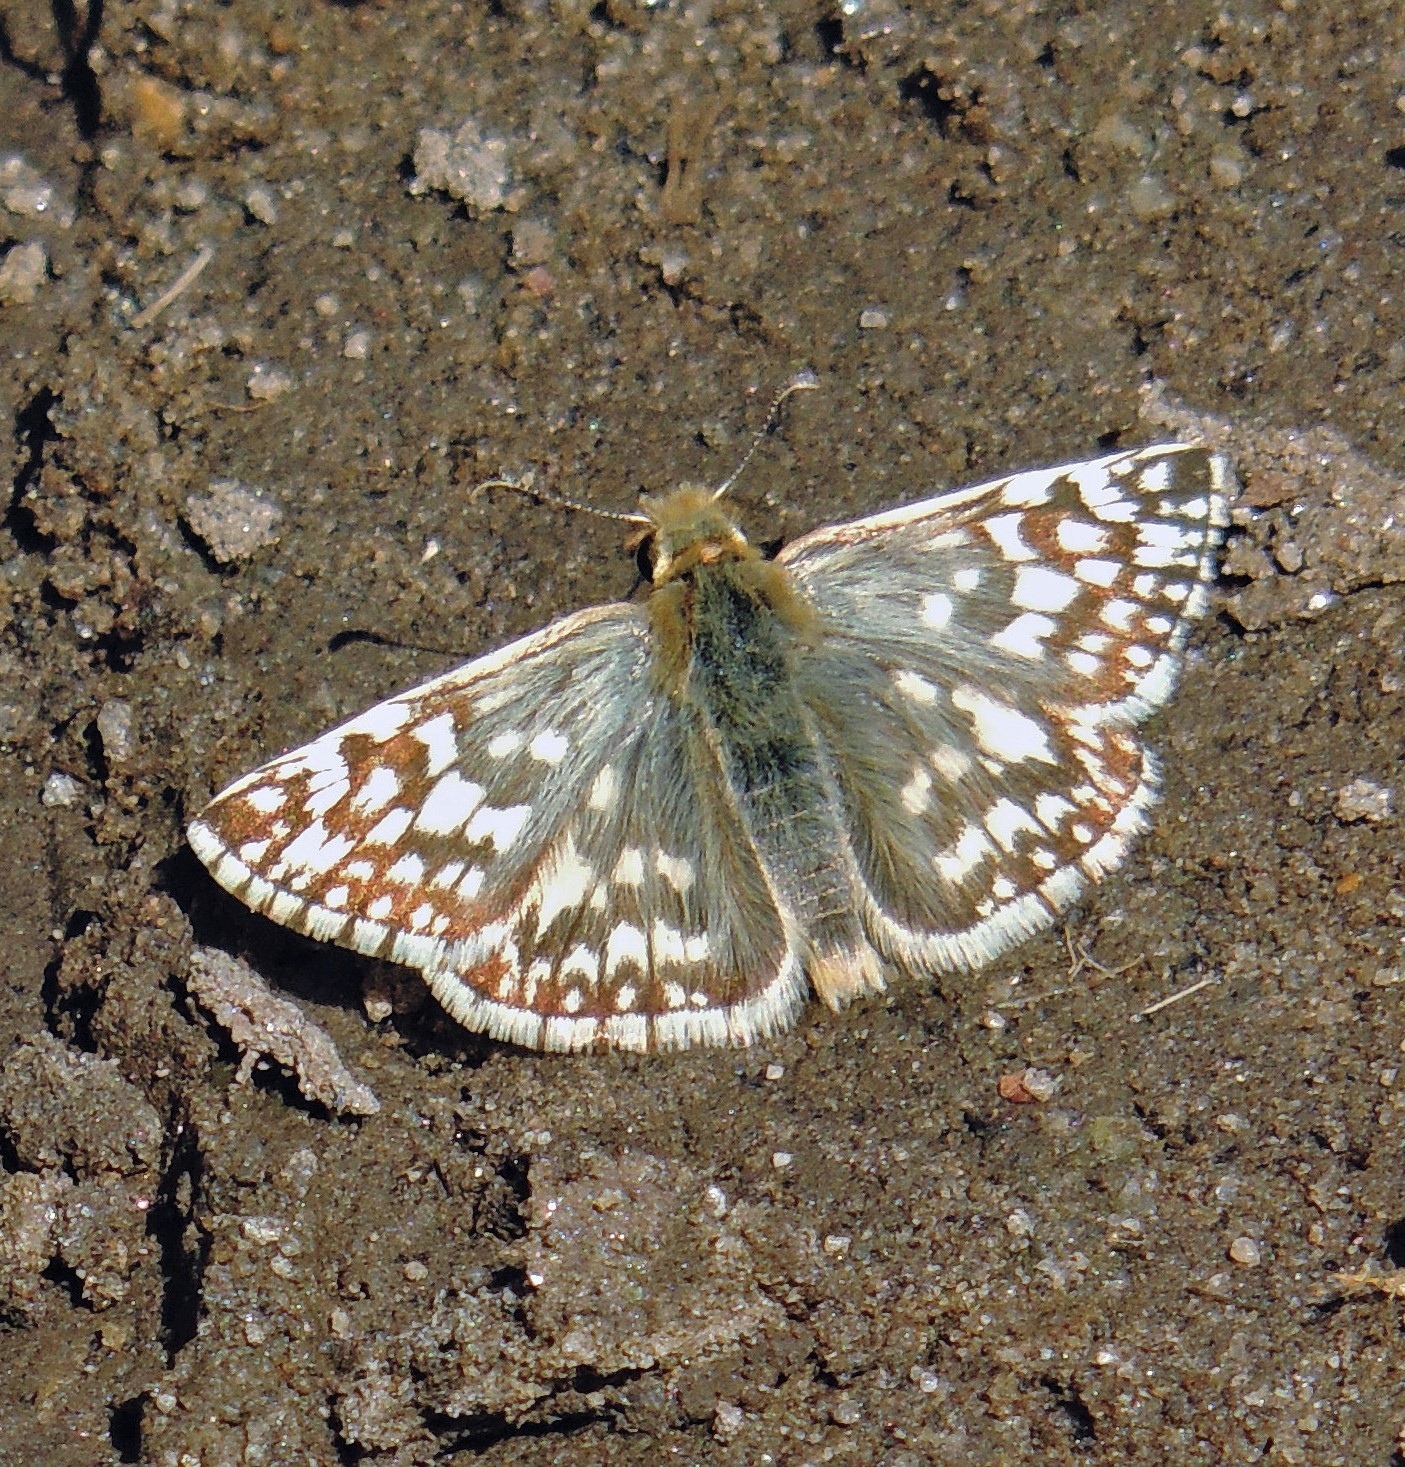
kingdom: Animalia
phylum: Arthropoda
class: Insecta
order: Lepidoptera
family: Hesperiidae
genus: Heliopetes
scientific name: Heliopetes americanus
